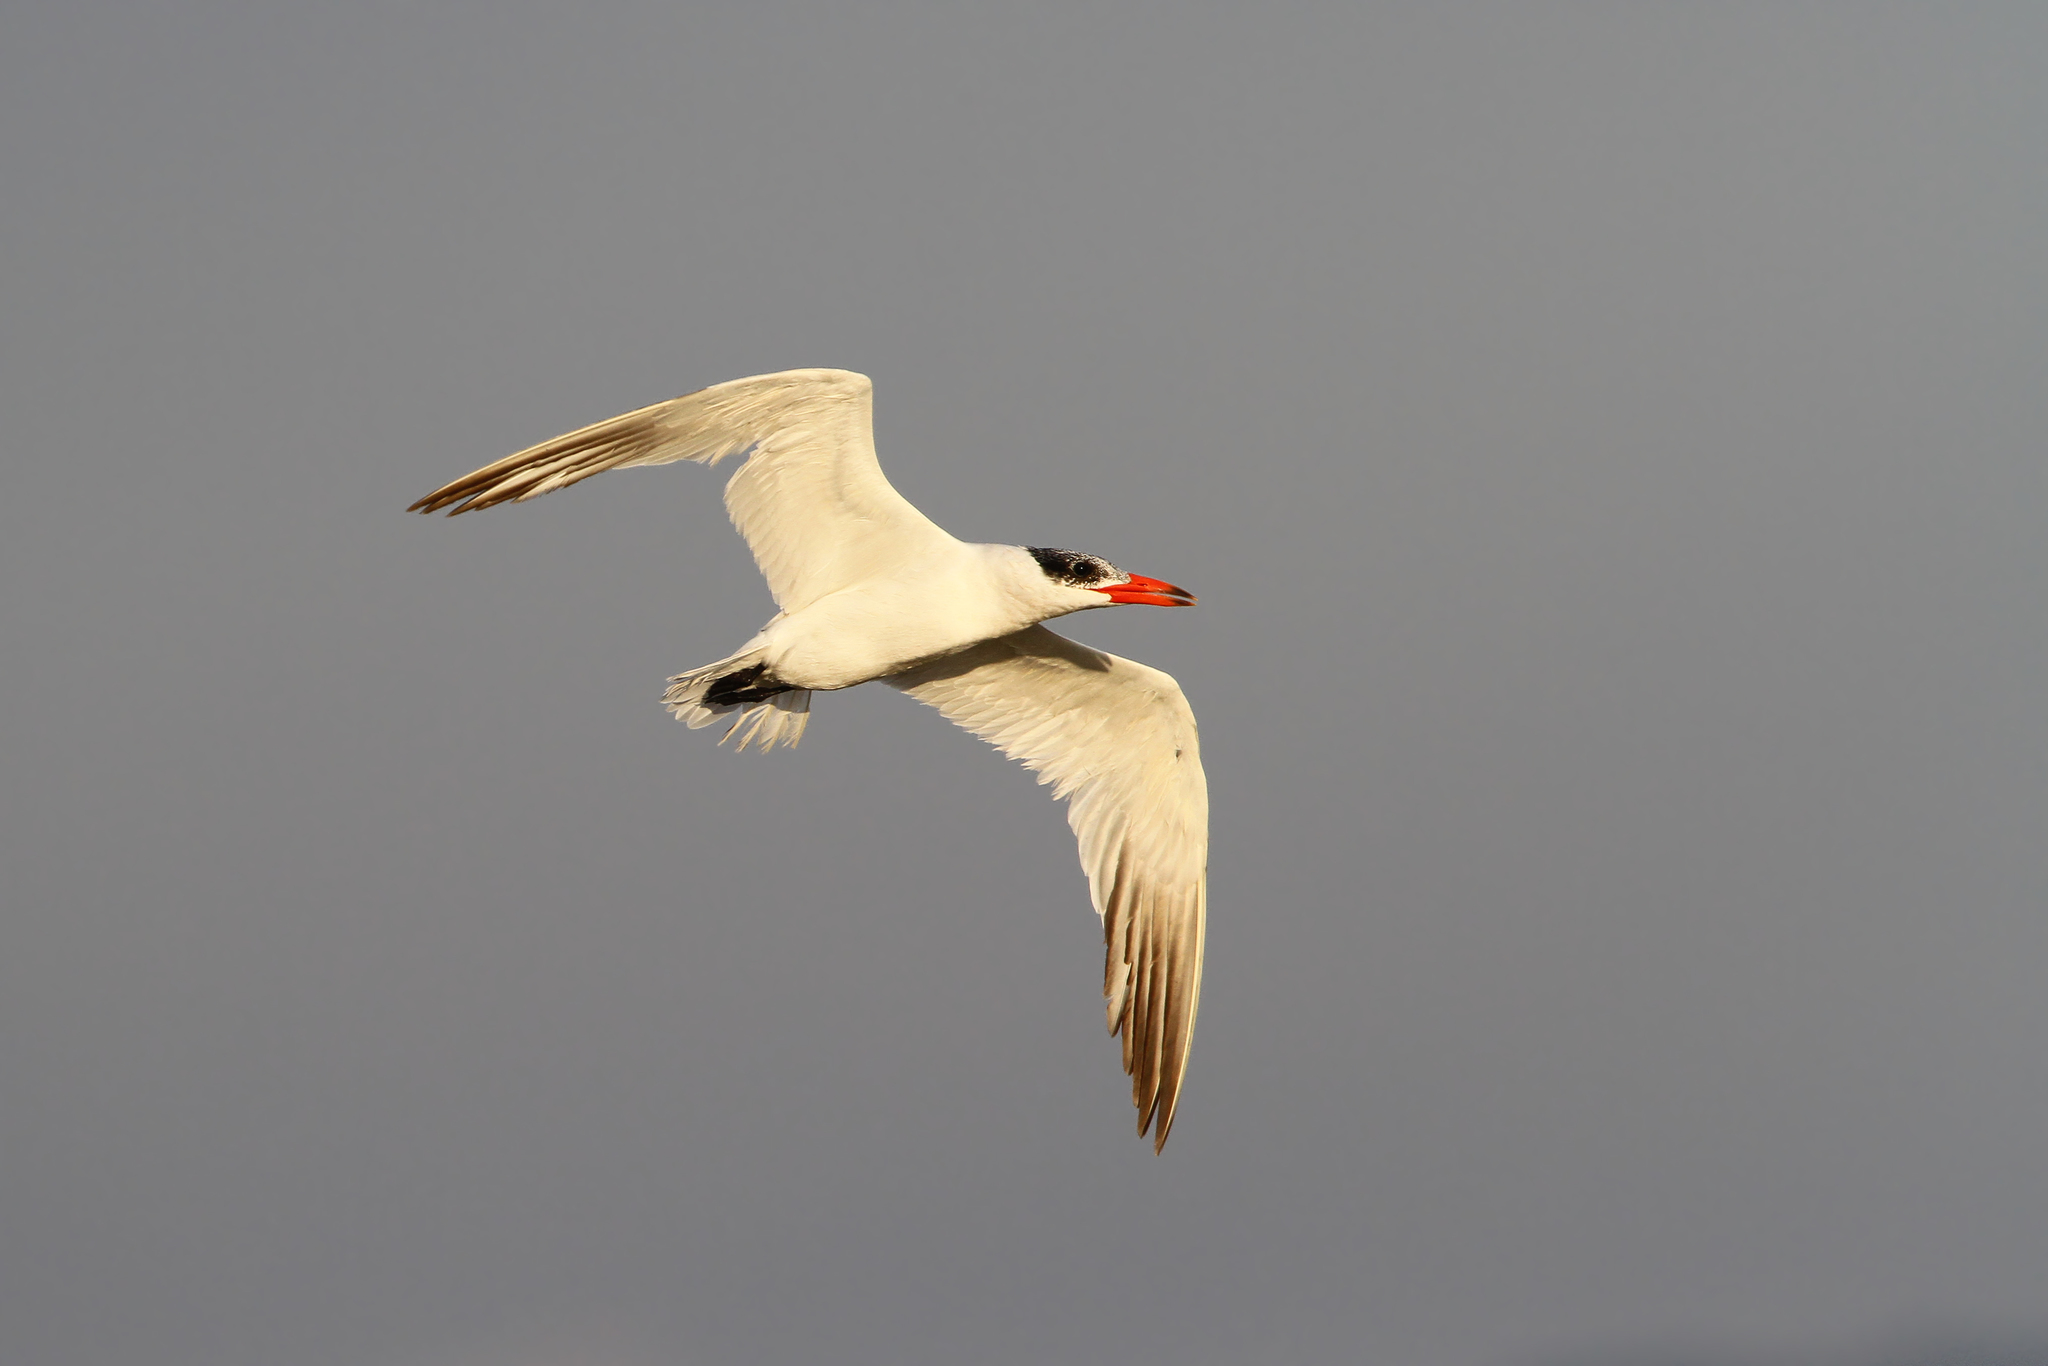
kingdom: Animalia
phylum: Chordata
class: Aves
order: Charadriiformes
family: Laridae
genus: Hydroprogne
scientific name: Hydroprogne caspia
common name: Caspian tern
